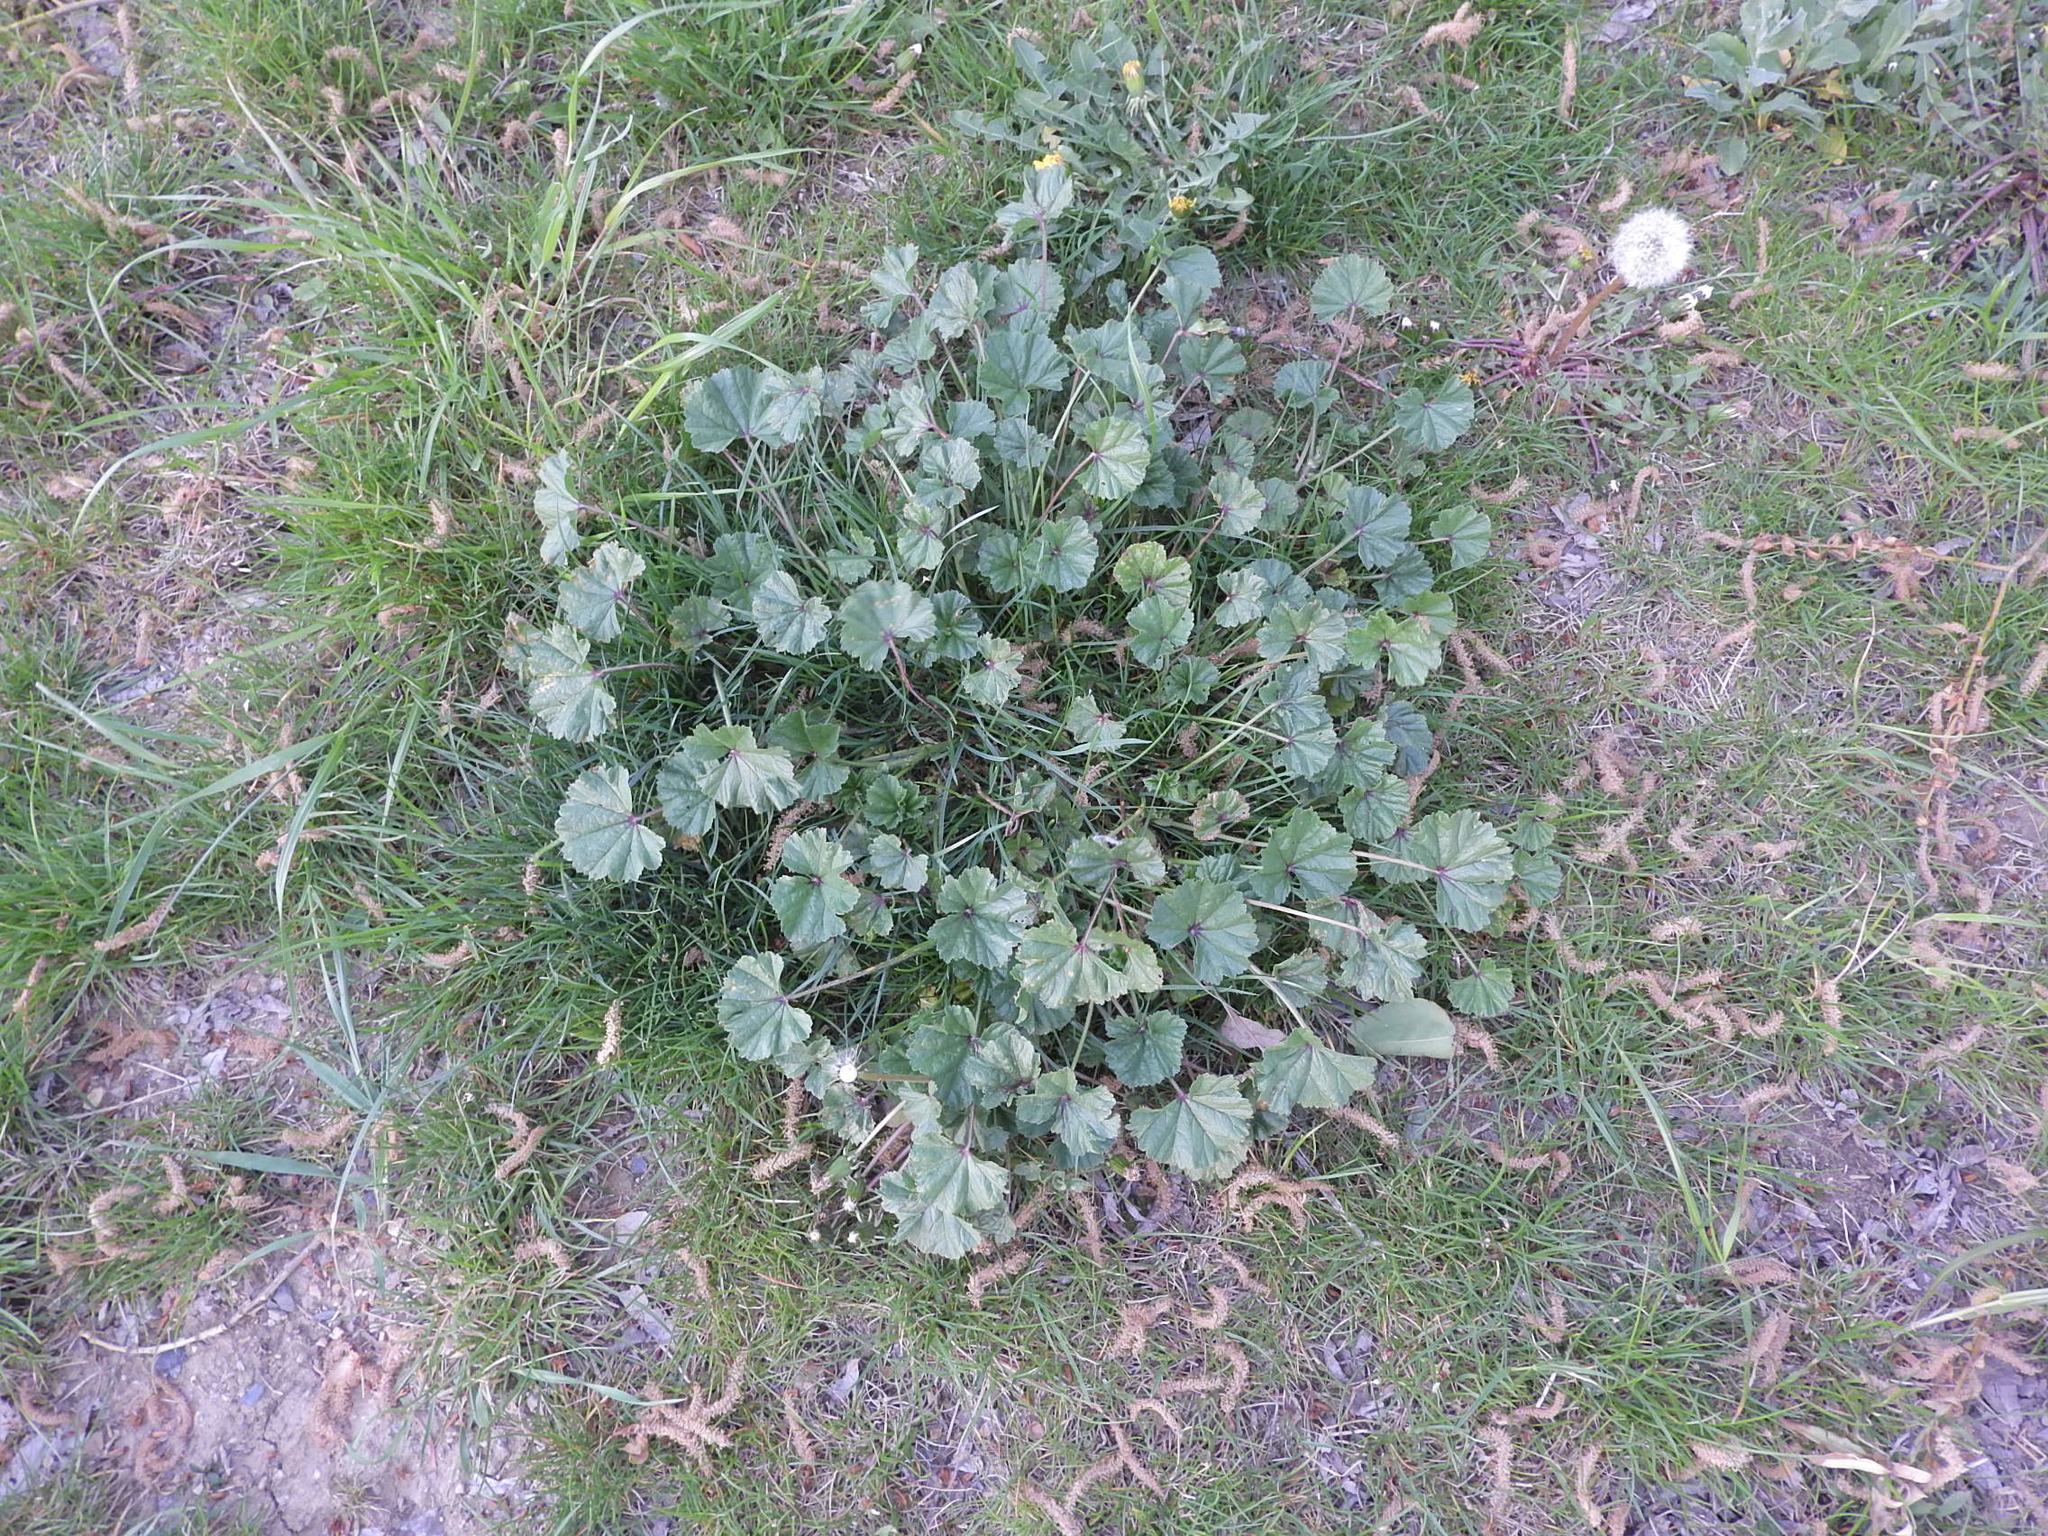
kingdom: Plantae
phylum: Tracheophyta
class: Magnoliopsida
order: Malvales
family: Malvaceae
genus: Malva
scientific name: Malva neglecta
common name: Common mallow
